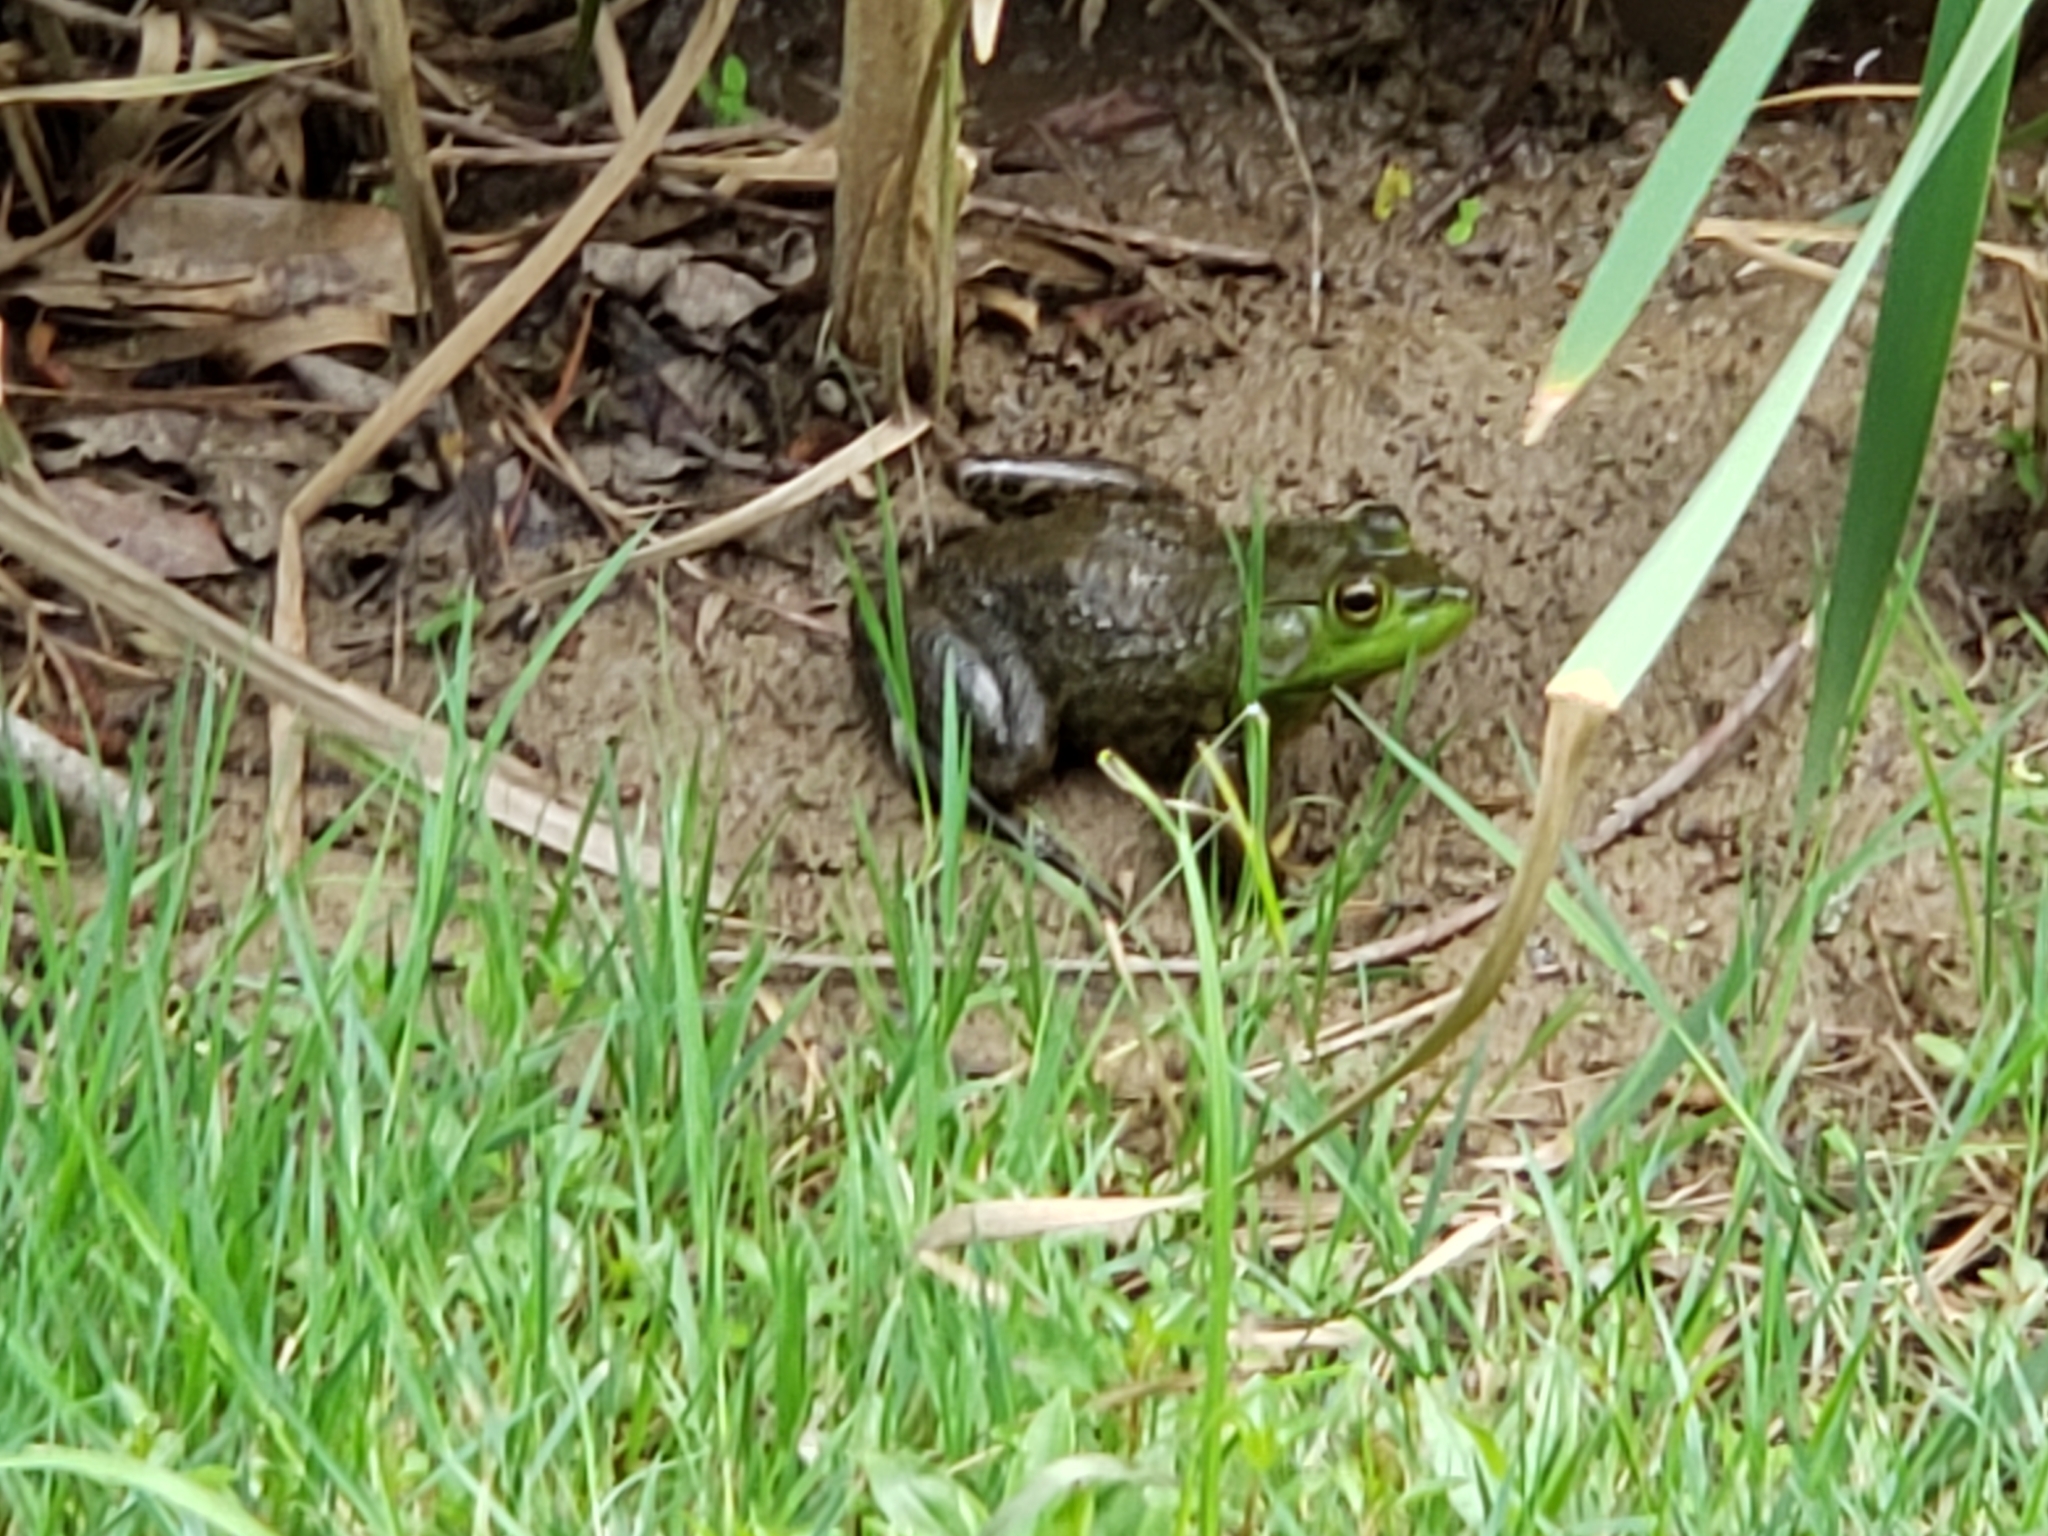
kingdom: Animalia
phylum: Chordata
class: Amphibia
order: Anura
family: Ranidae
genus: Lithobates
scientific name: Lithobates catesbeianus
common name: American bullfrog
